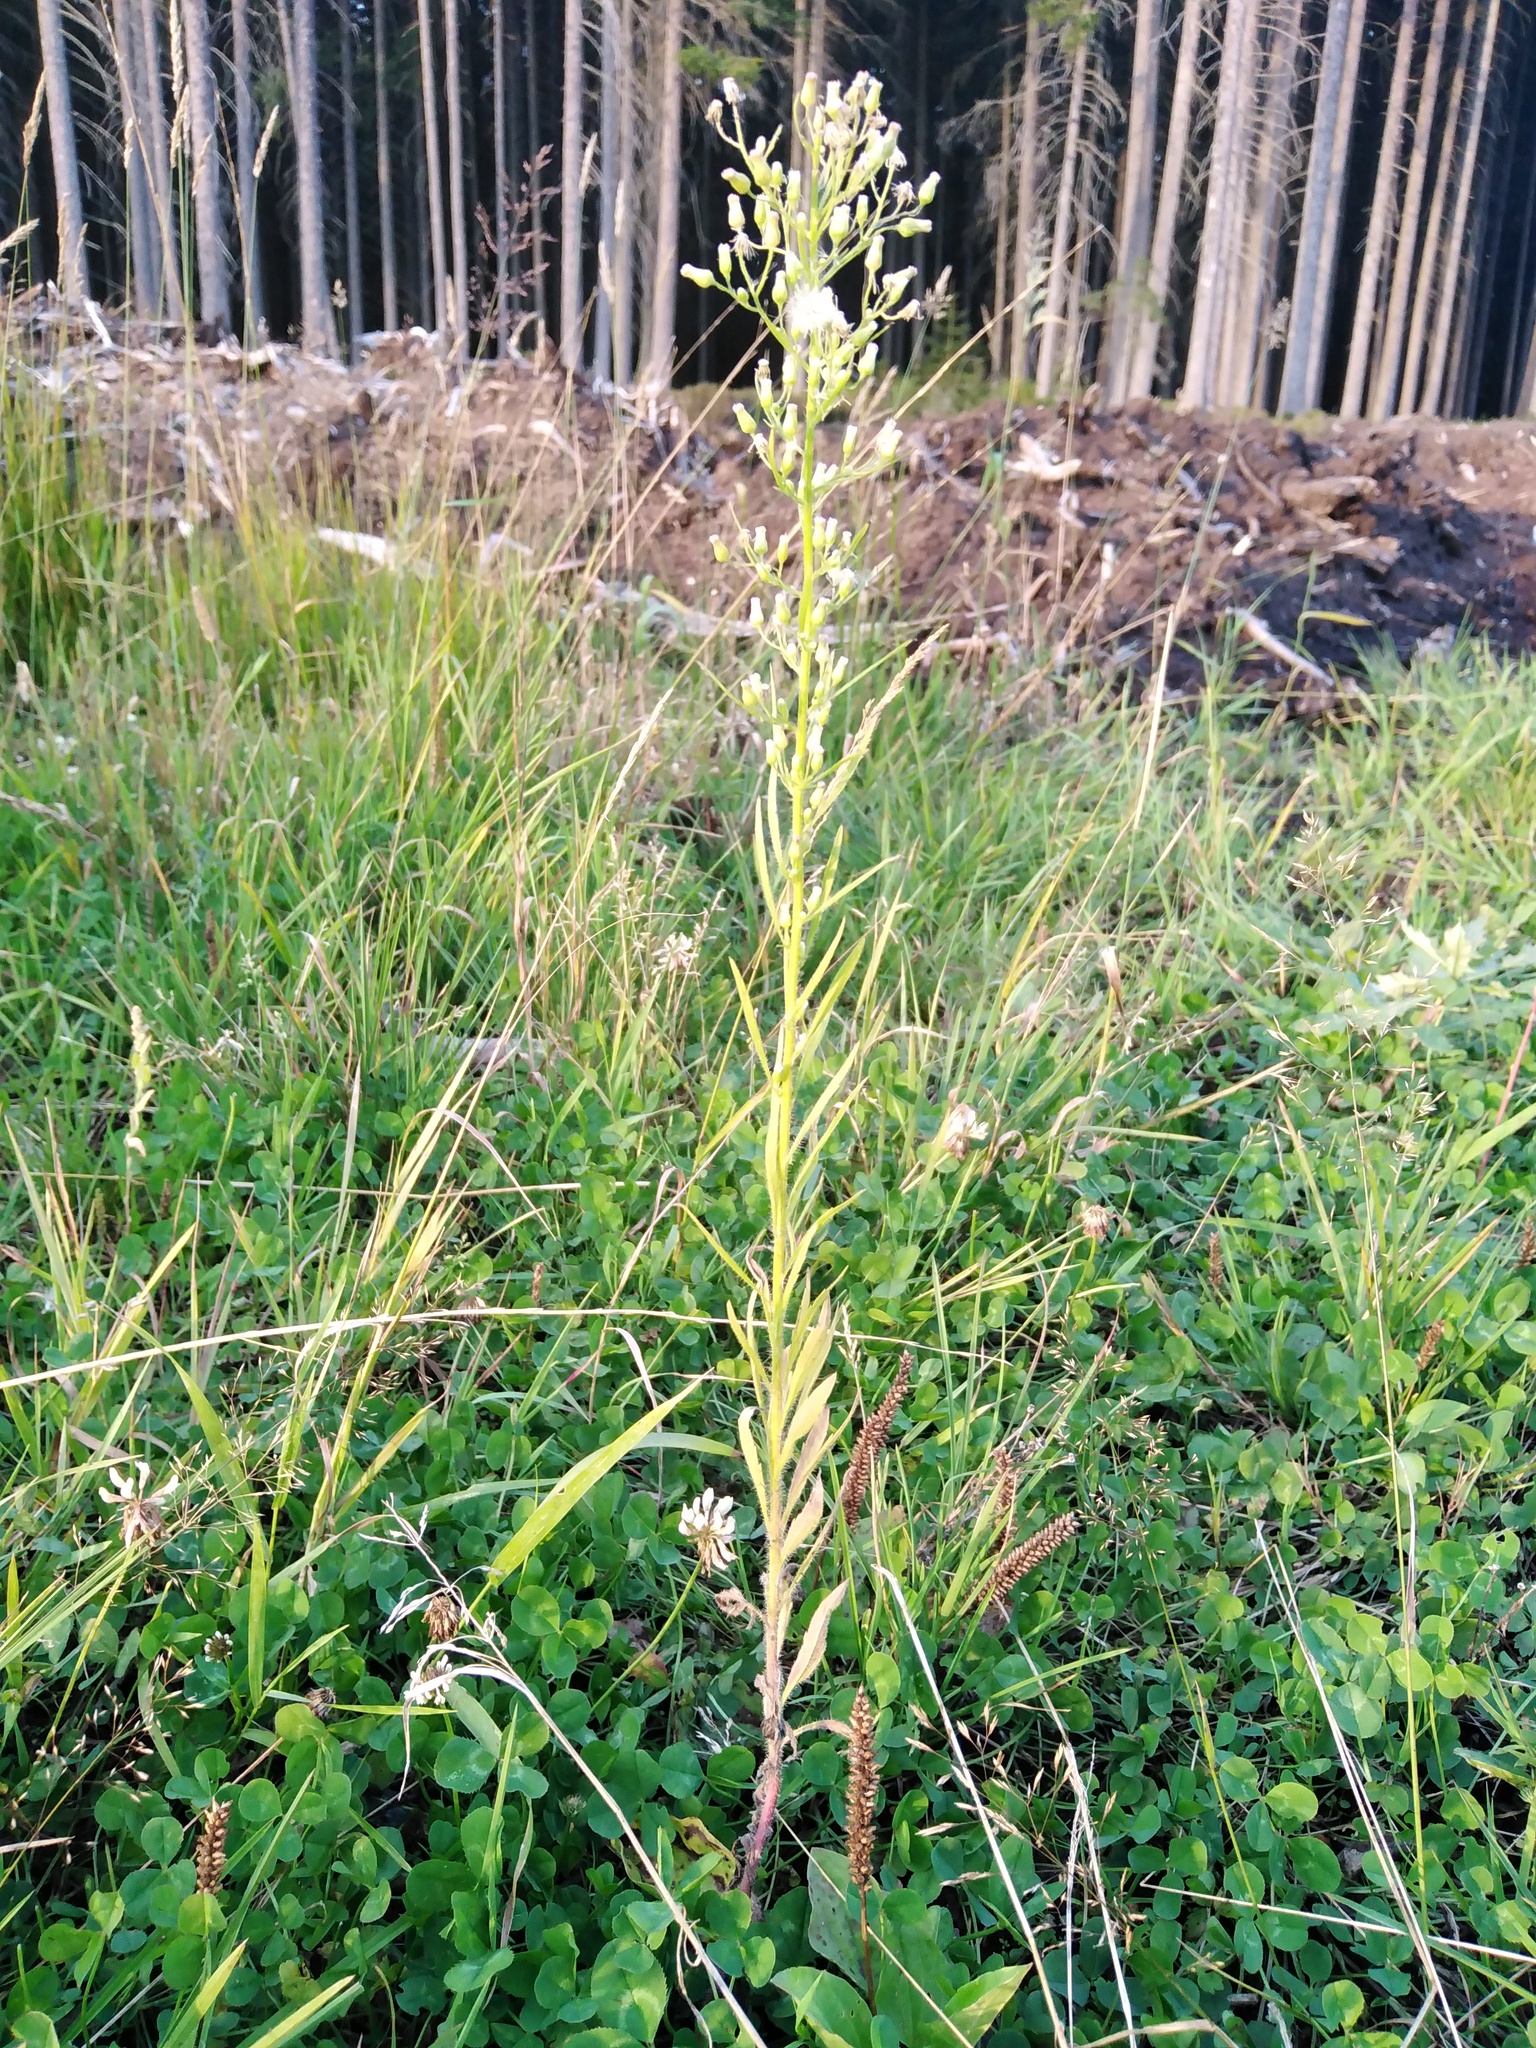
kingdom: Plantae
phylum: Tracheophyta
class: Magnoliopsida
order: Asterales
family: Asteraceae
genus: Erigeron
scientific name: Erigeron canadensis
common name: Canadian fleabane
